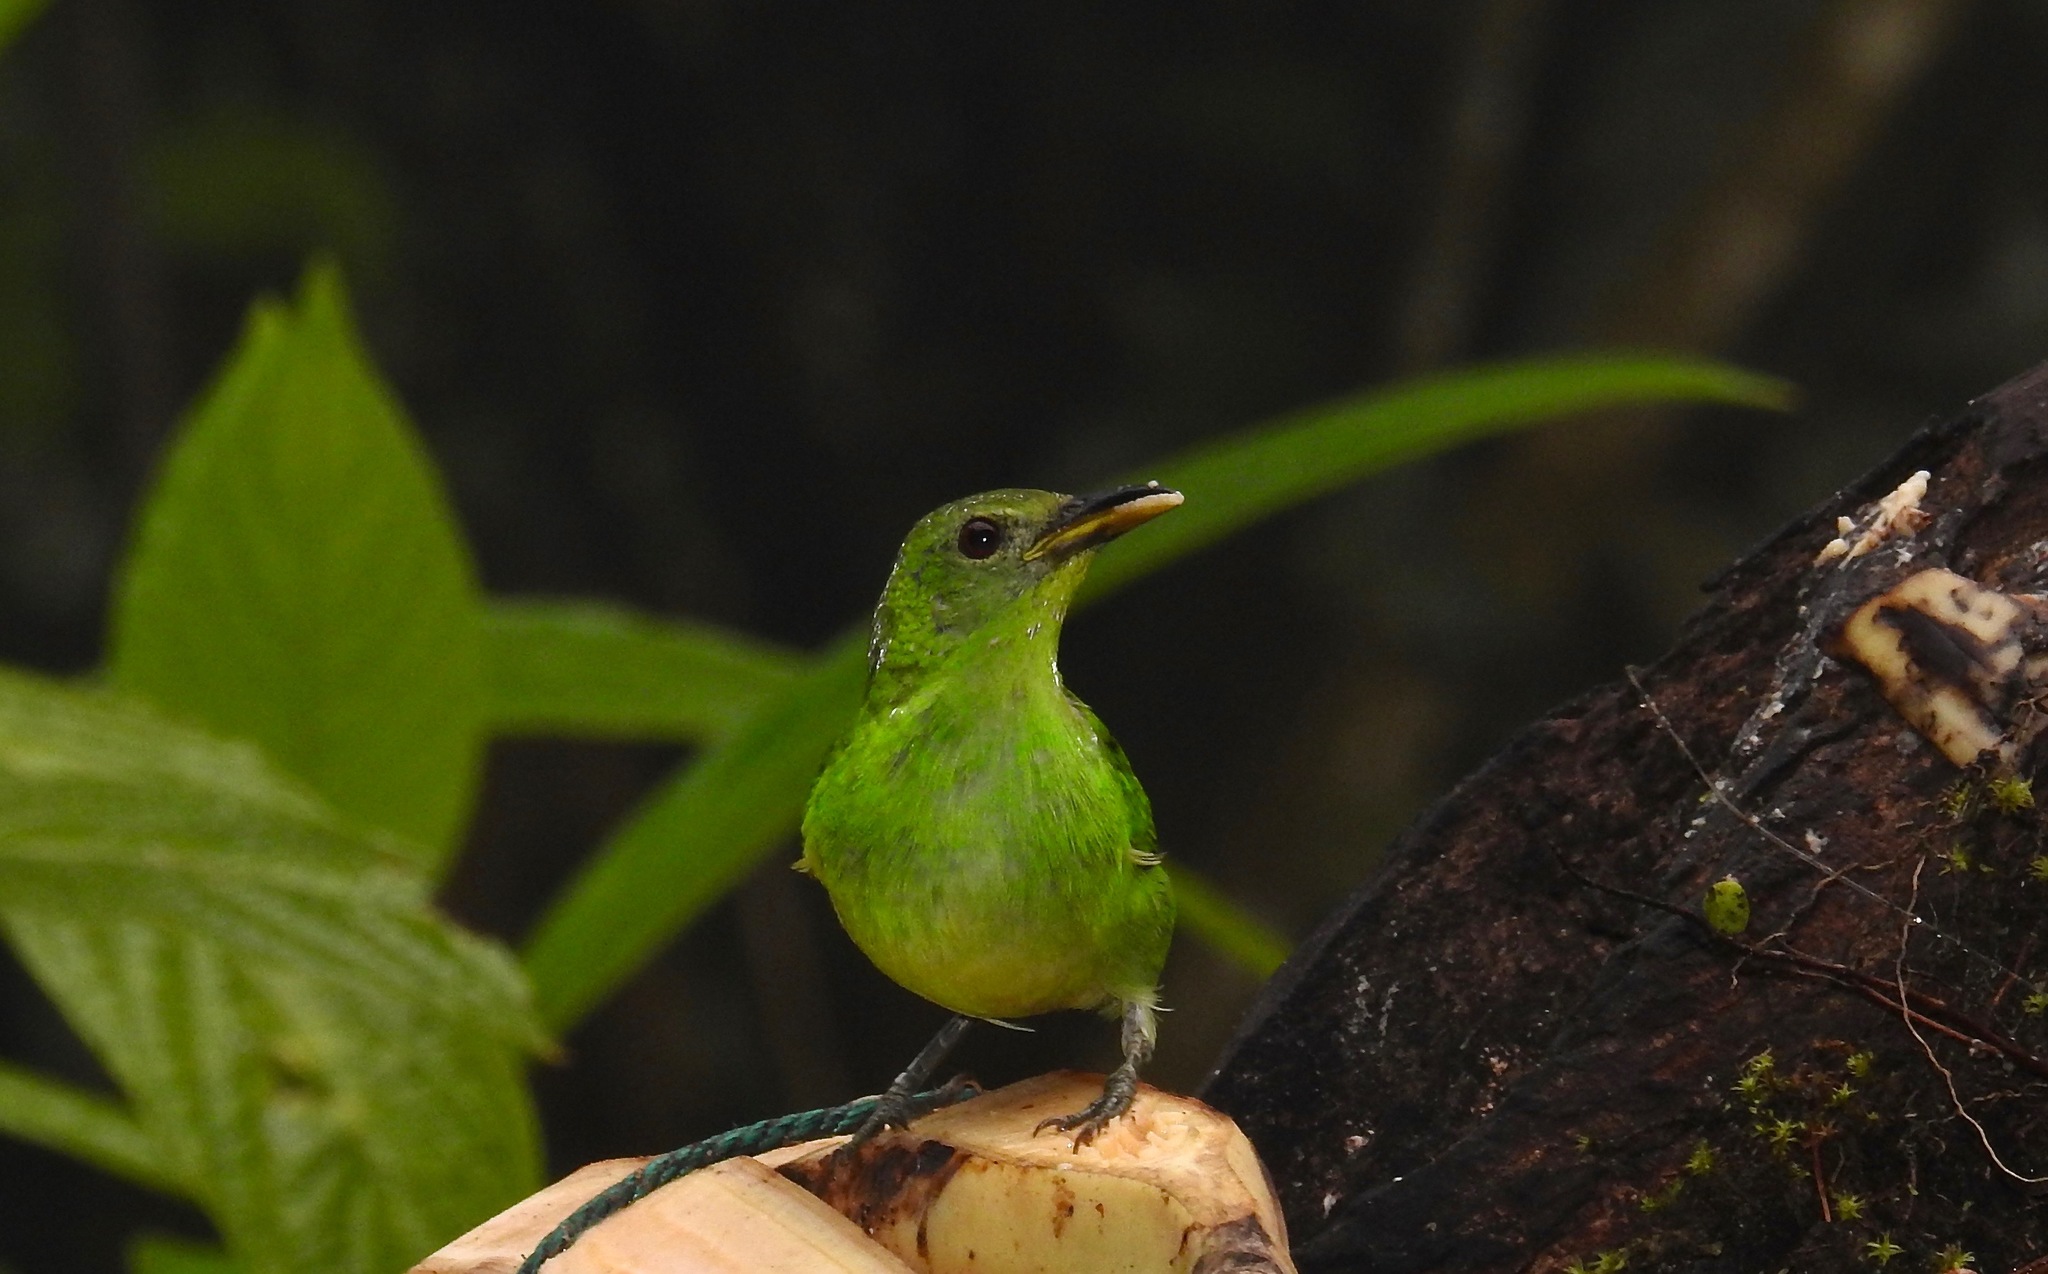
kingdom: Animalia
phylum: Chordata
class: Aves
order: Passeriformes
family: Thraupidae
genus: Chlorophanes
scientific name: Chlorophanes spiza
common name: Green honeycreeper
